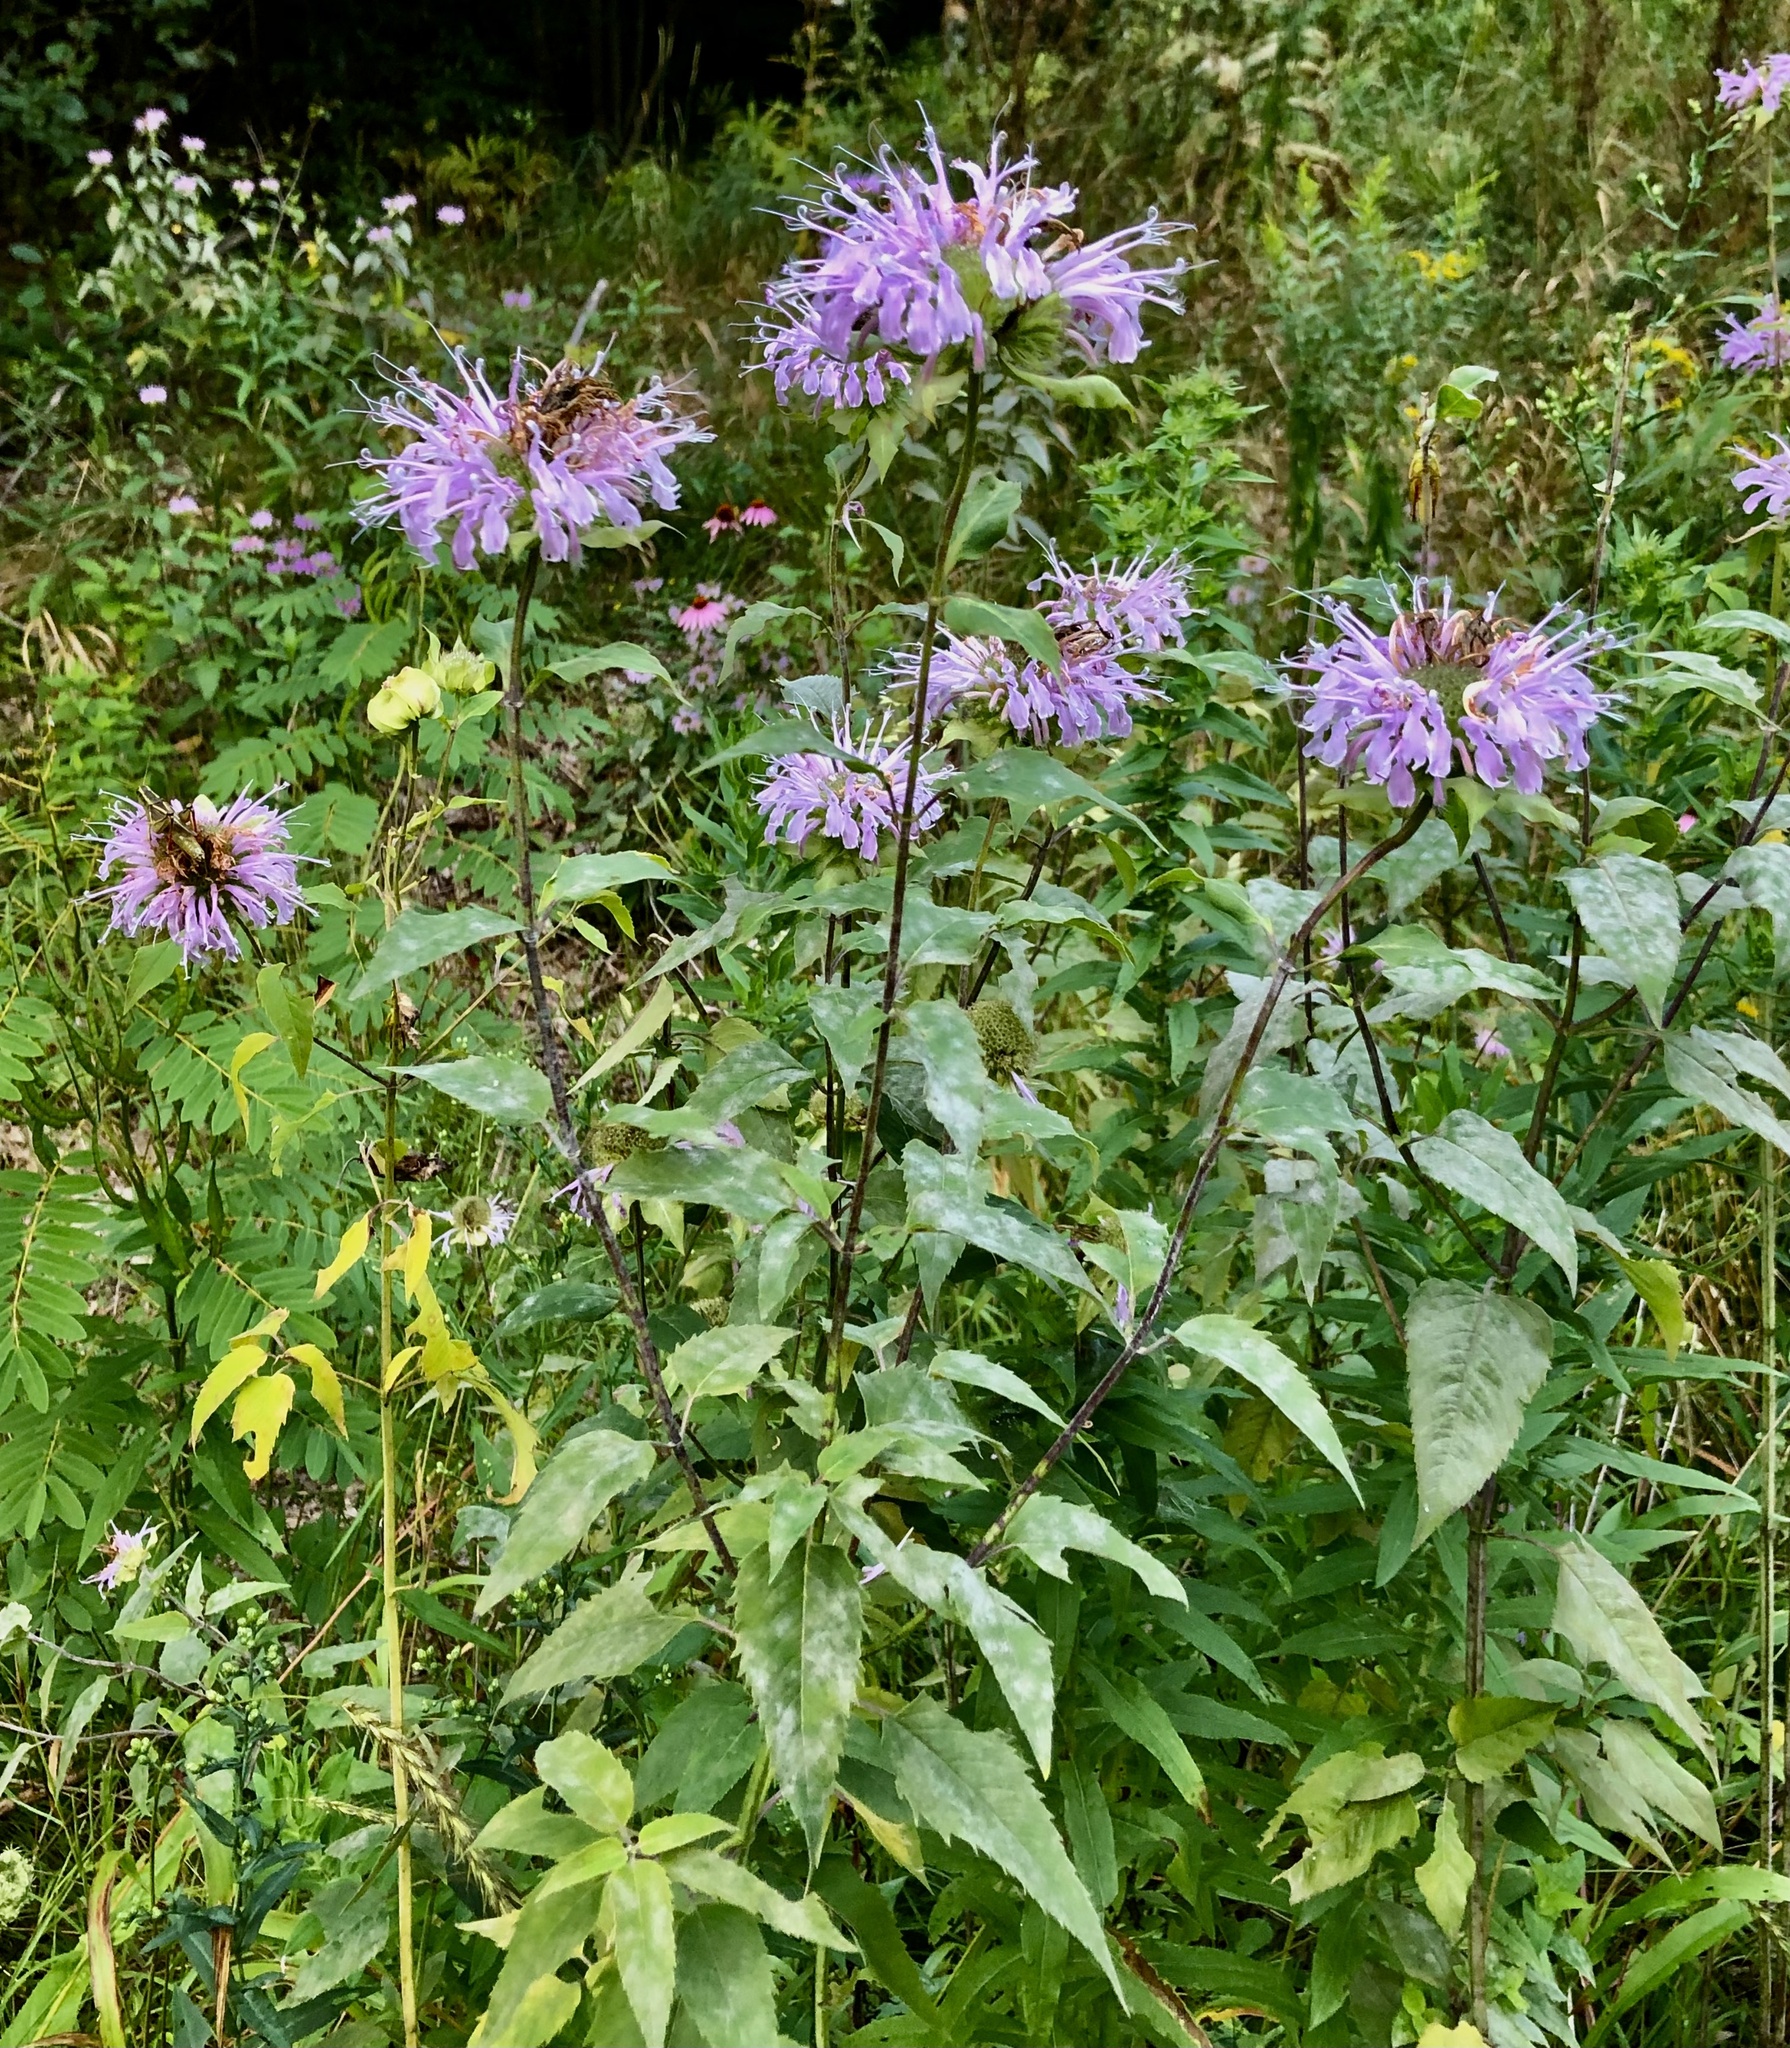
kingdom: Plantae
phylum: Tracheophyta
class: Magnoliopsida
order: Lamiales
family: Lamiaceae
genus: Monarda
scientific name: Monarda fistulosa
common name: Purple beebalm
